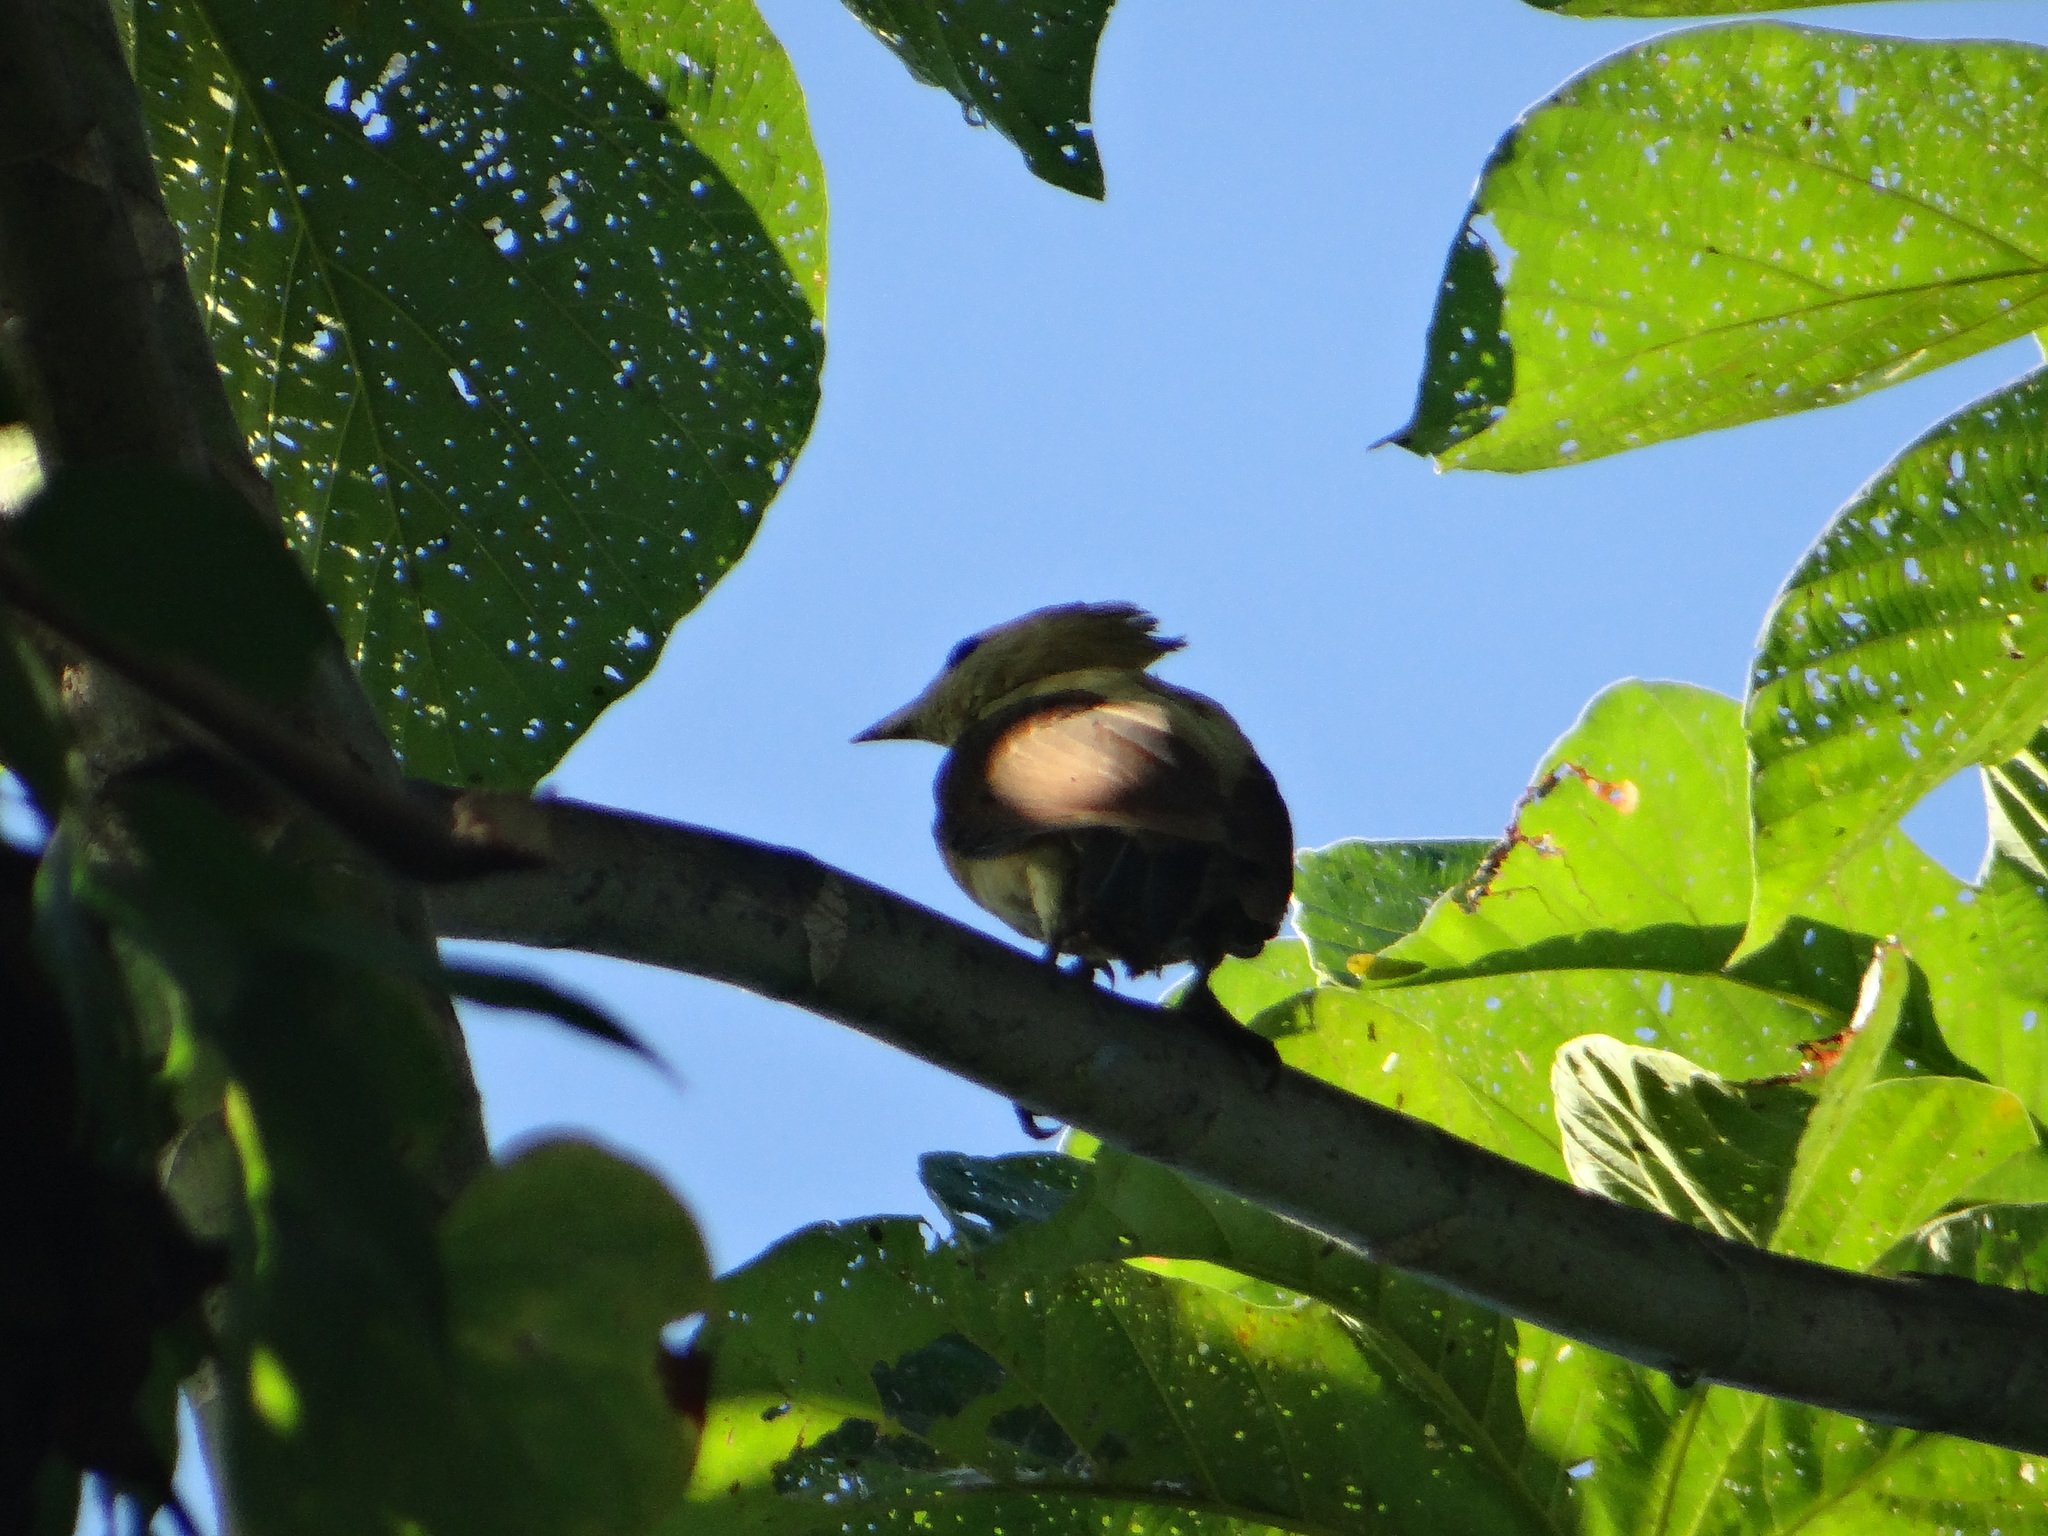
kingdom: Animalia
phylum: Chordata
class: Aves
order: Piciformes
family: Picidae
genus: Celeus
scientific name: Celeus flavus
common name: Cream-colored woodpecker
